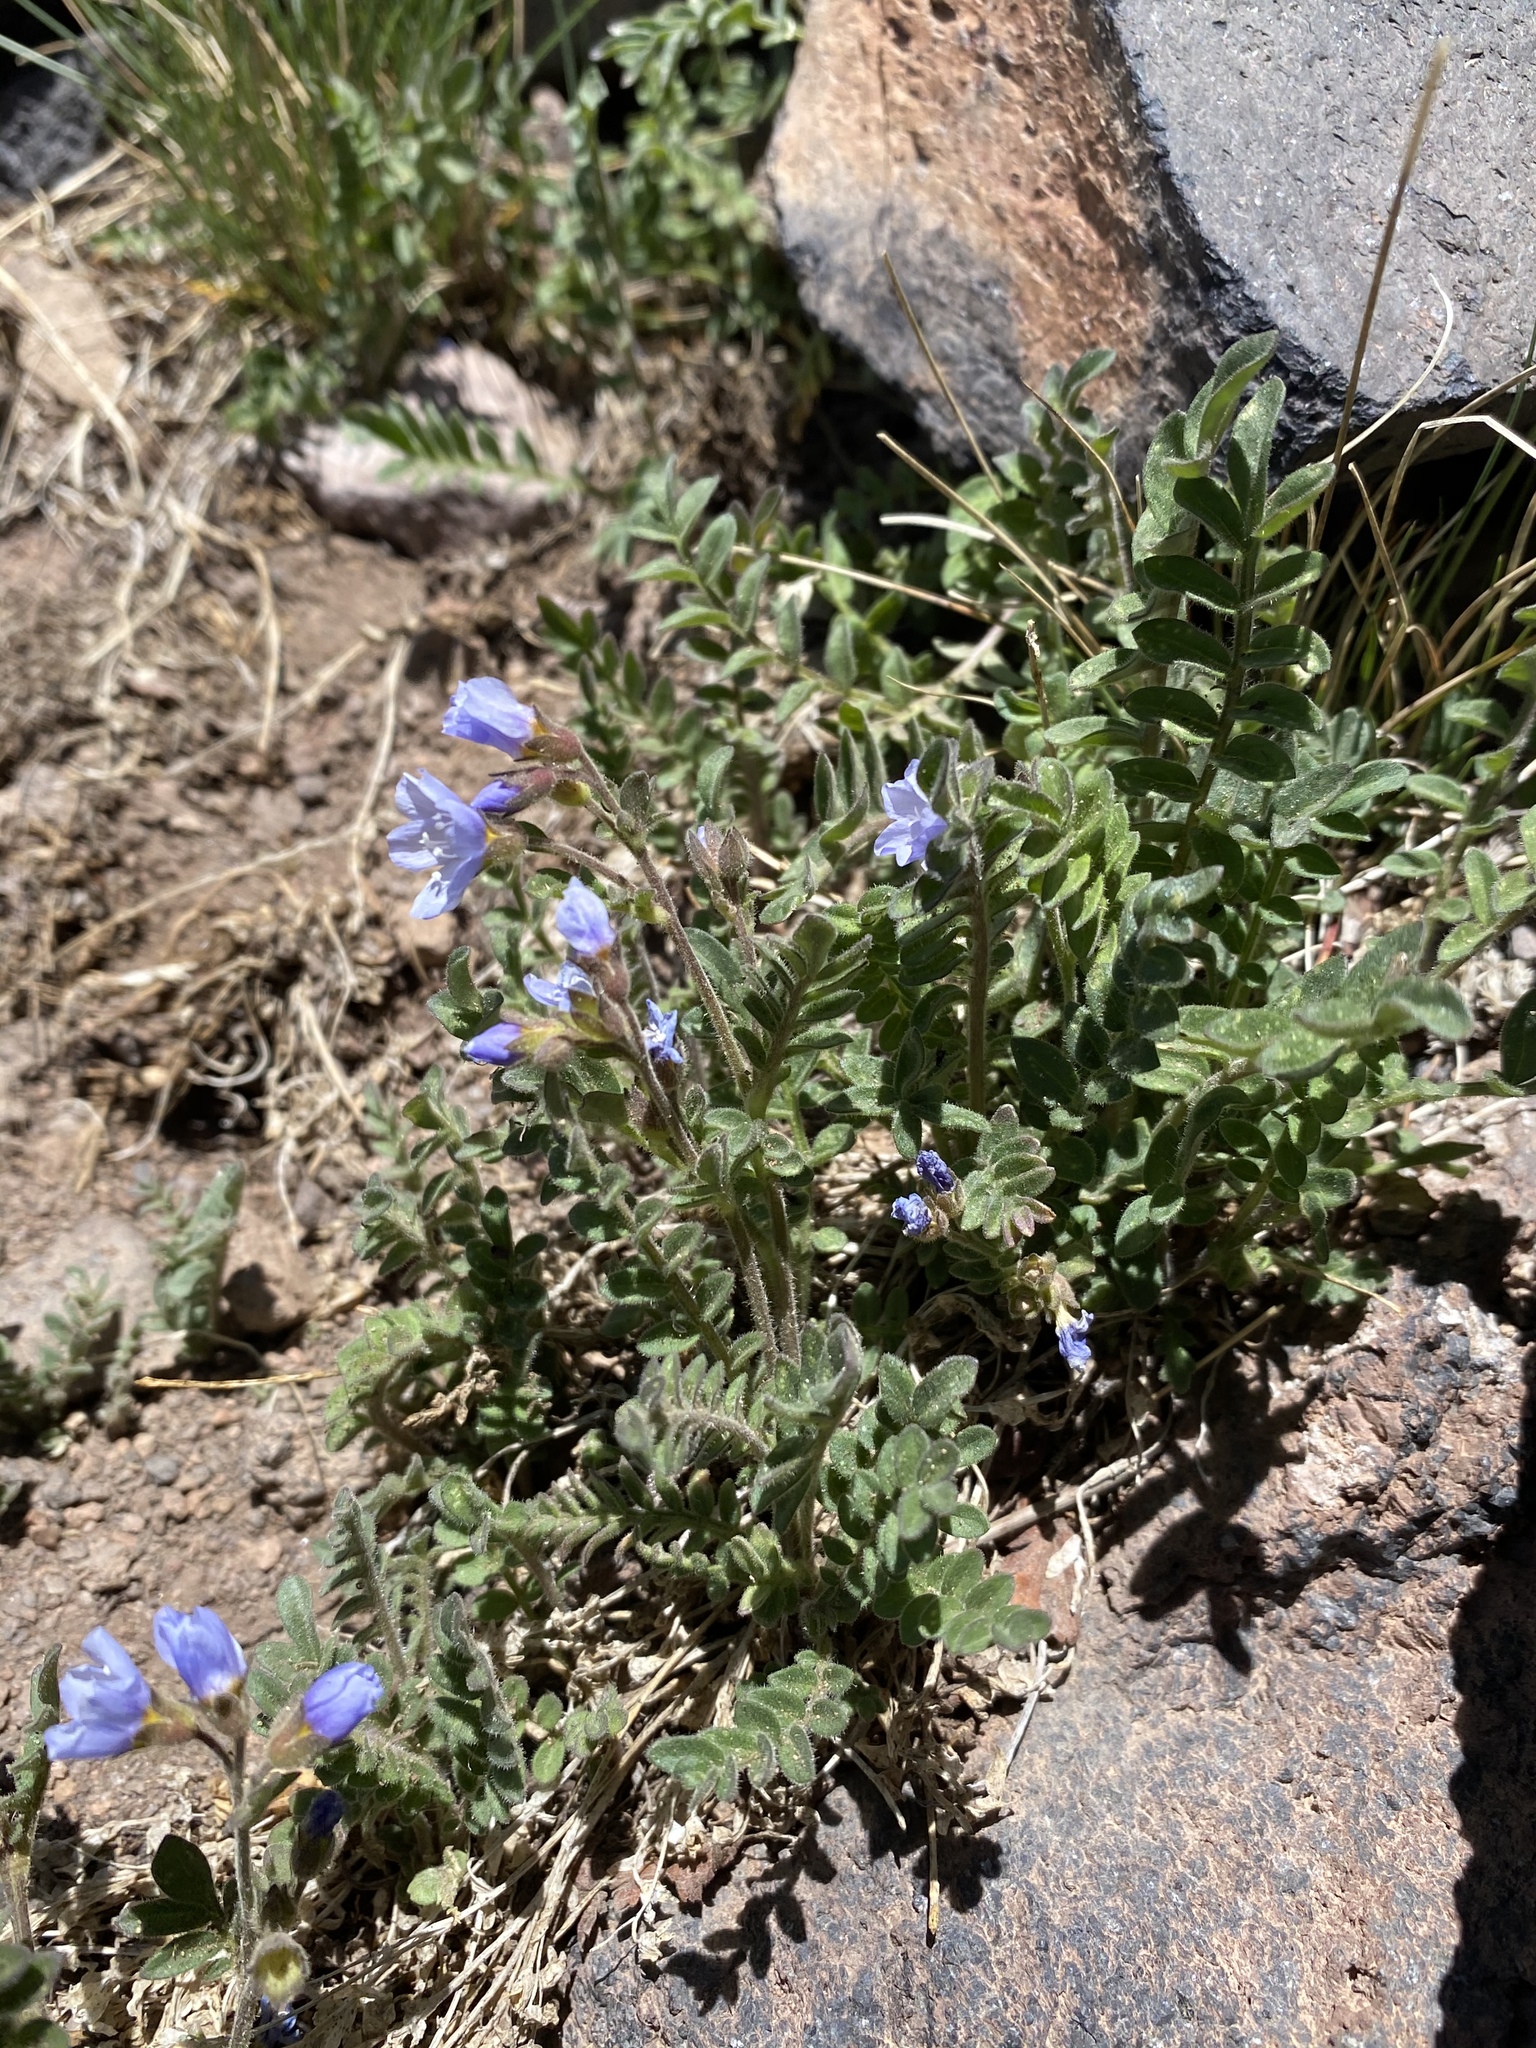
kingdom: Plantae
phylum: Tracheophyta
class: Magnoliopsida
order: Ericales
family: Polemoniaceae
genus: Polemonium
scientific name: Polemonium pulcherrimum
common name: Short jacob's-ladder
